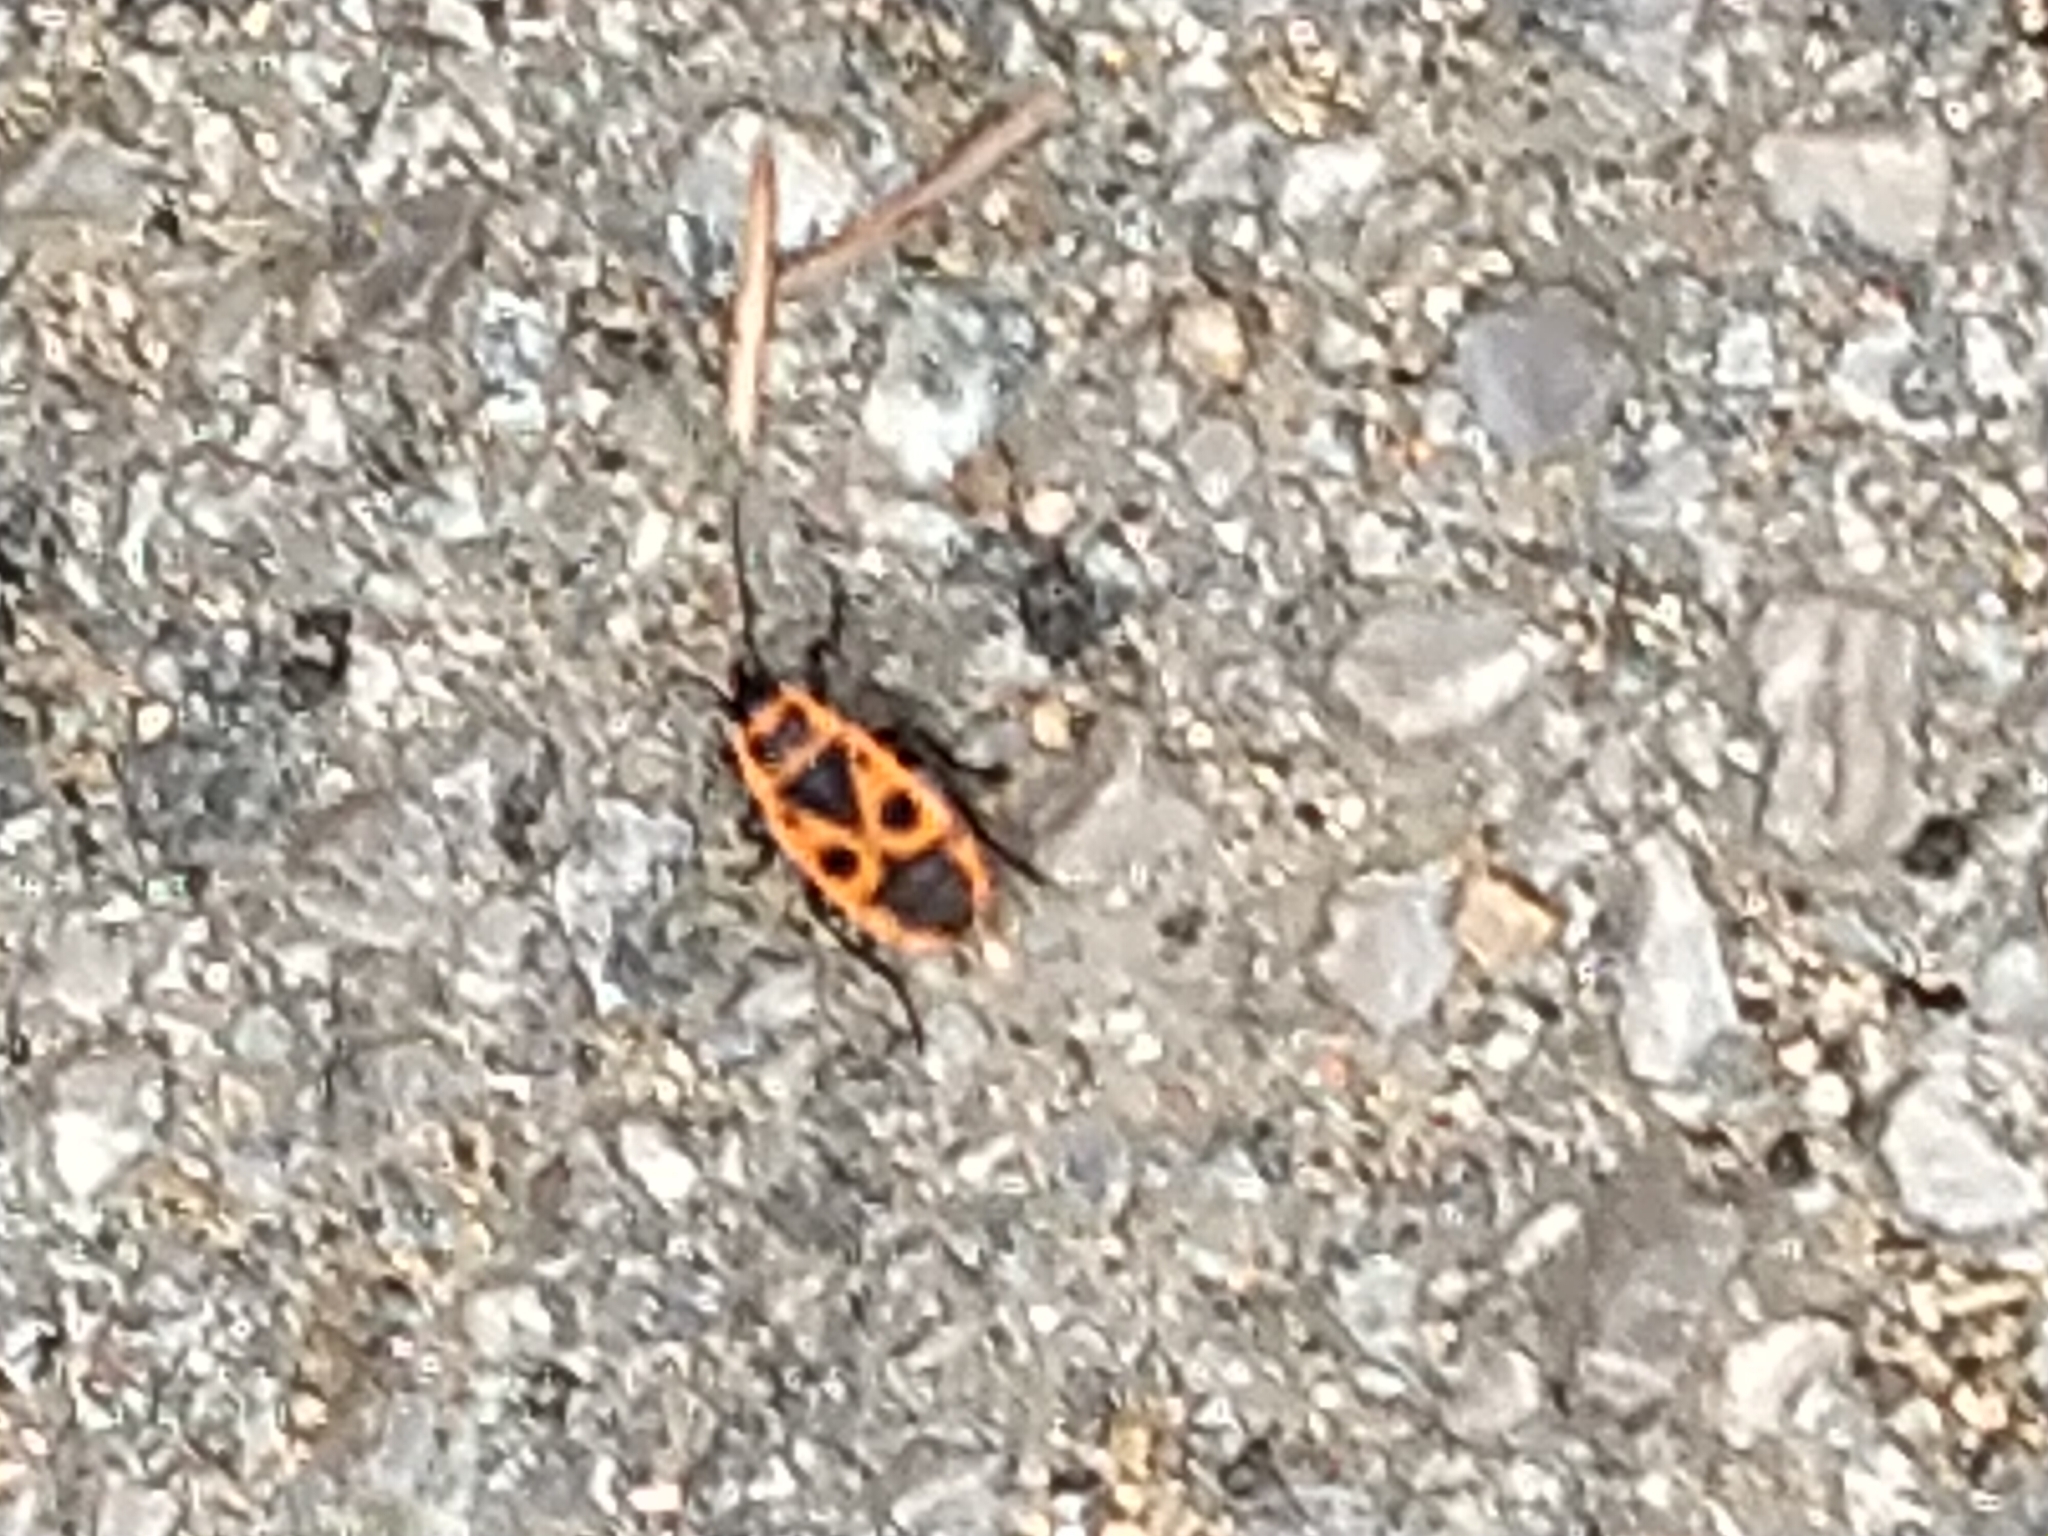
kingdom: Animalia
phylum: Arthropoda
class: Insecta
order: Hemiptera
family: Pyrrhocoridae
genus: Pyrrhocoris
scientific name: Pyrrhocoris apterus
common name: Firebug
